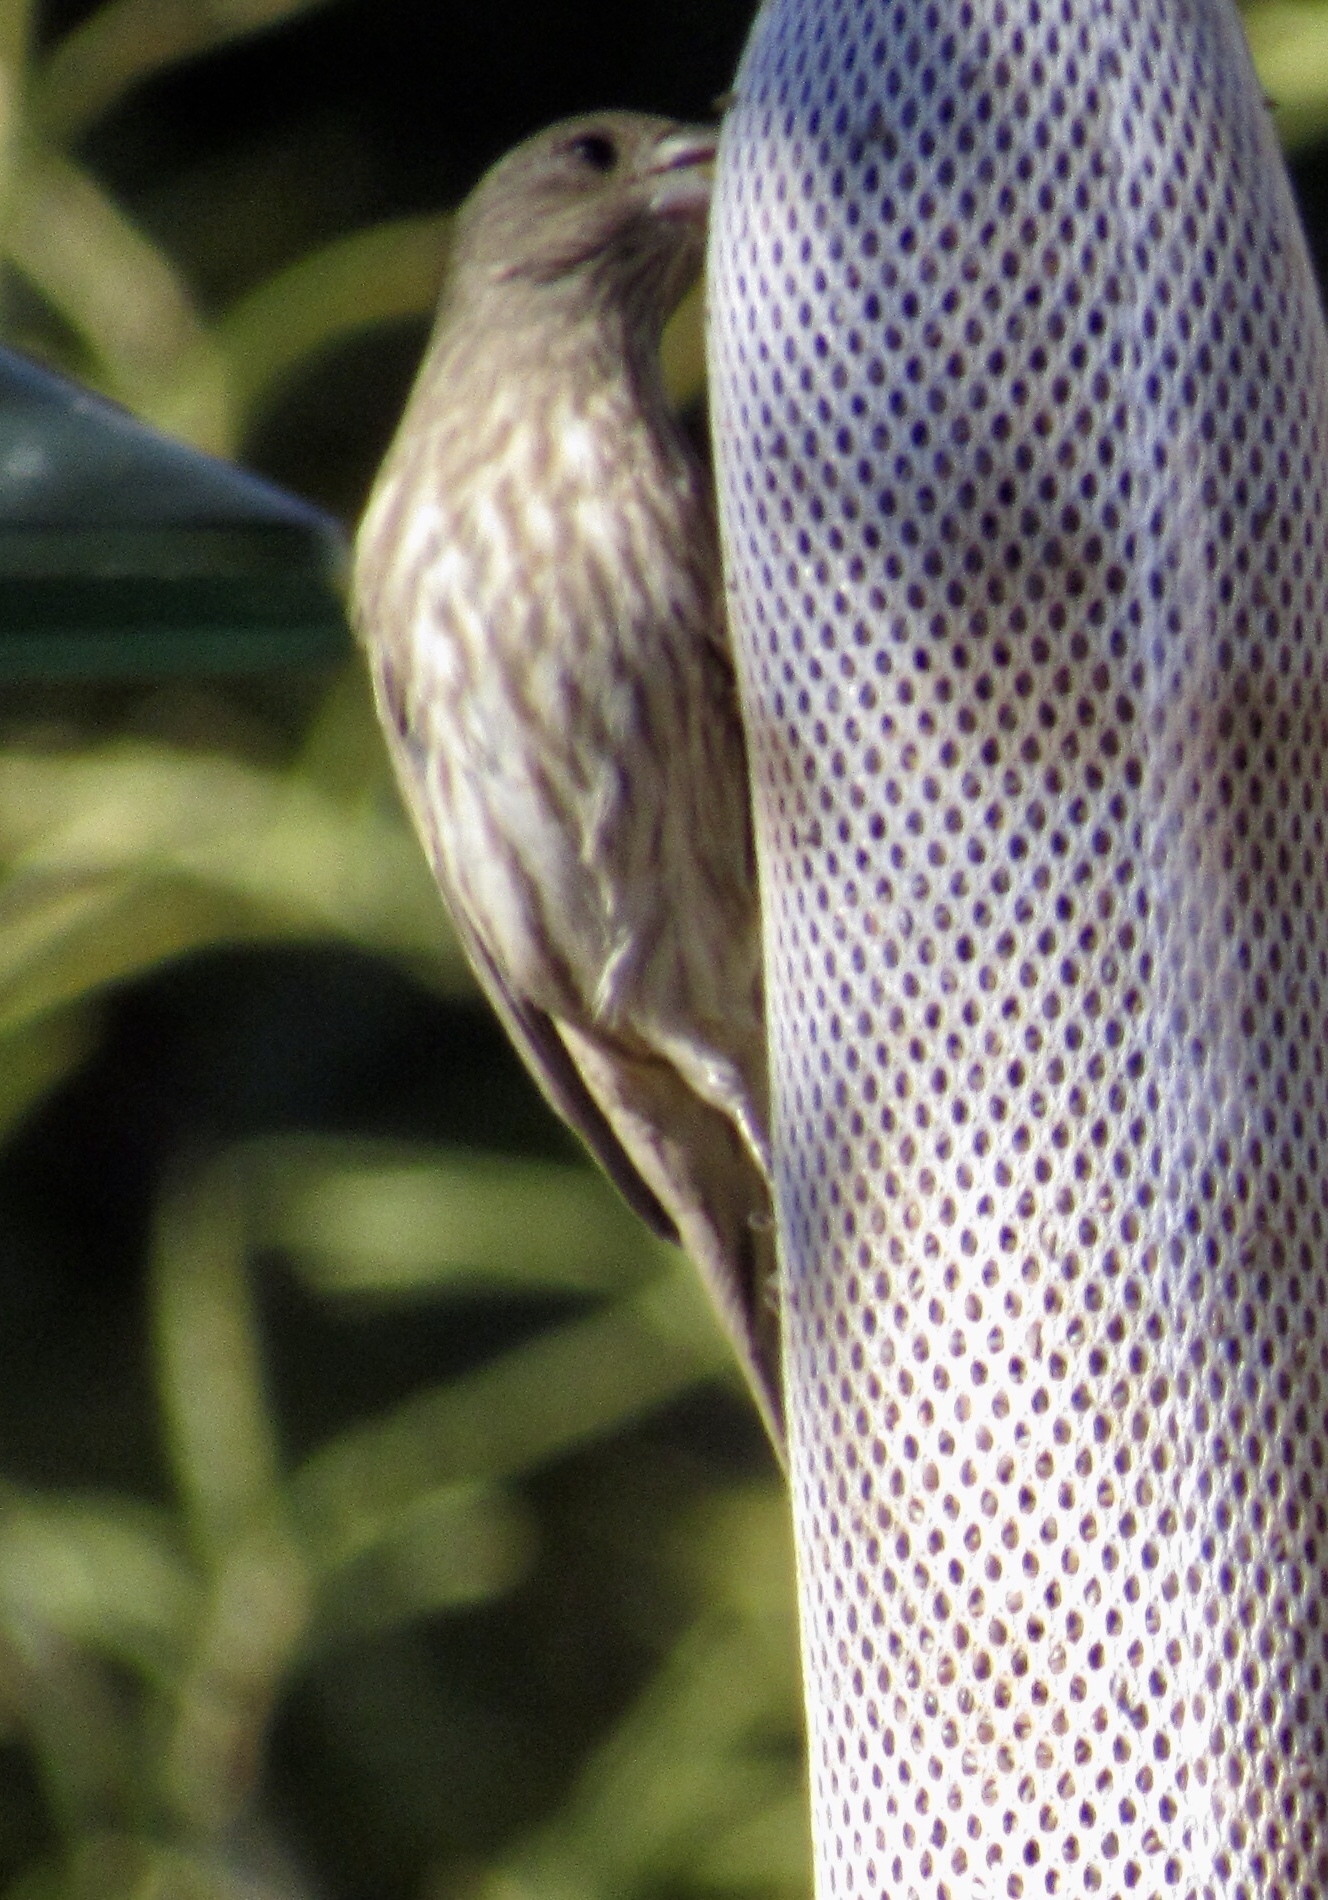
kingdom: Animalia
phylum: Chordata
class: Aves
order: Passeriformes
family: Fringillidae
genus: Haemorhous
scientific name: Haemorhous mexicanus
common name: House finch
